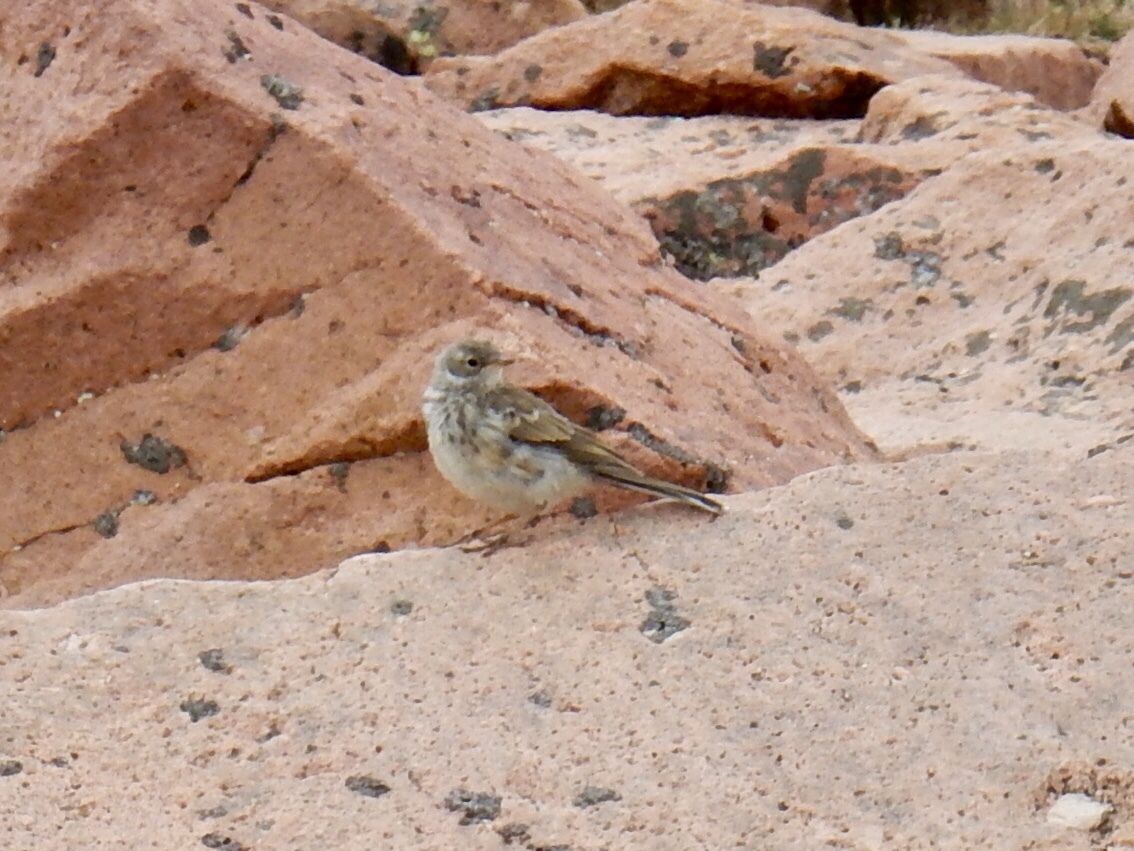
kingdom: Animalia
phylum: Chordata
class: Aves
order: Passeriformes
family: Motacillidae
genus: Anthus
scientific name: Anthus rubescens
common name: Buff-bellied pipit
